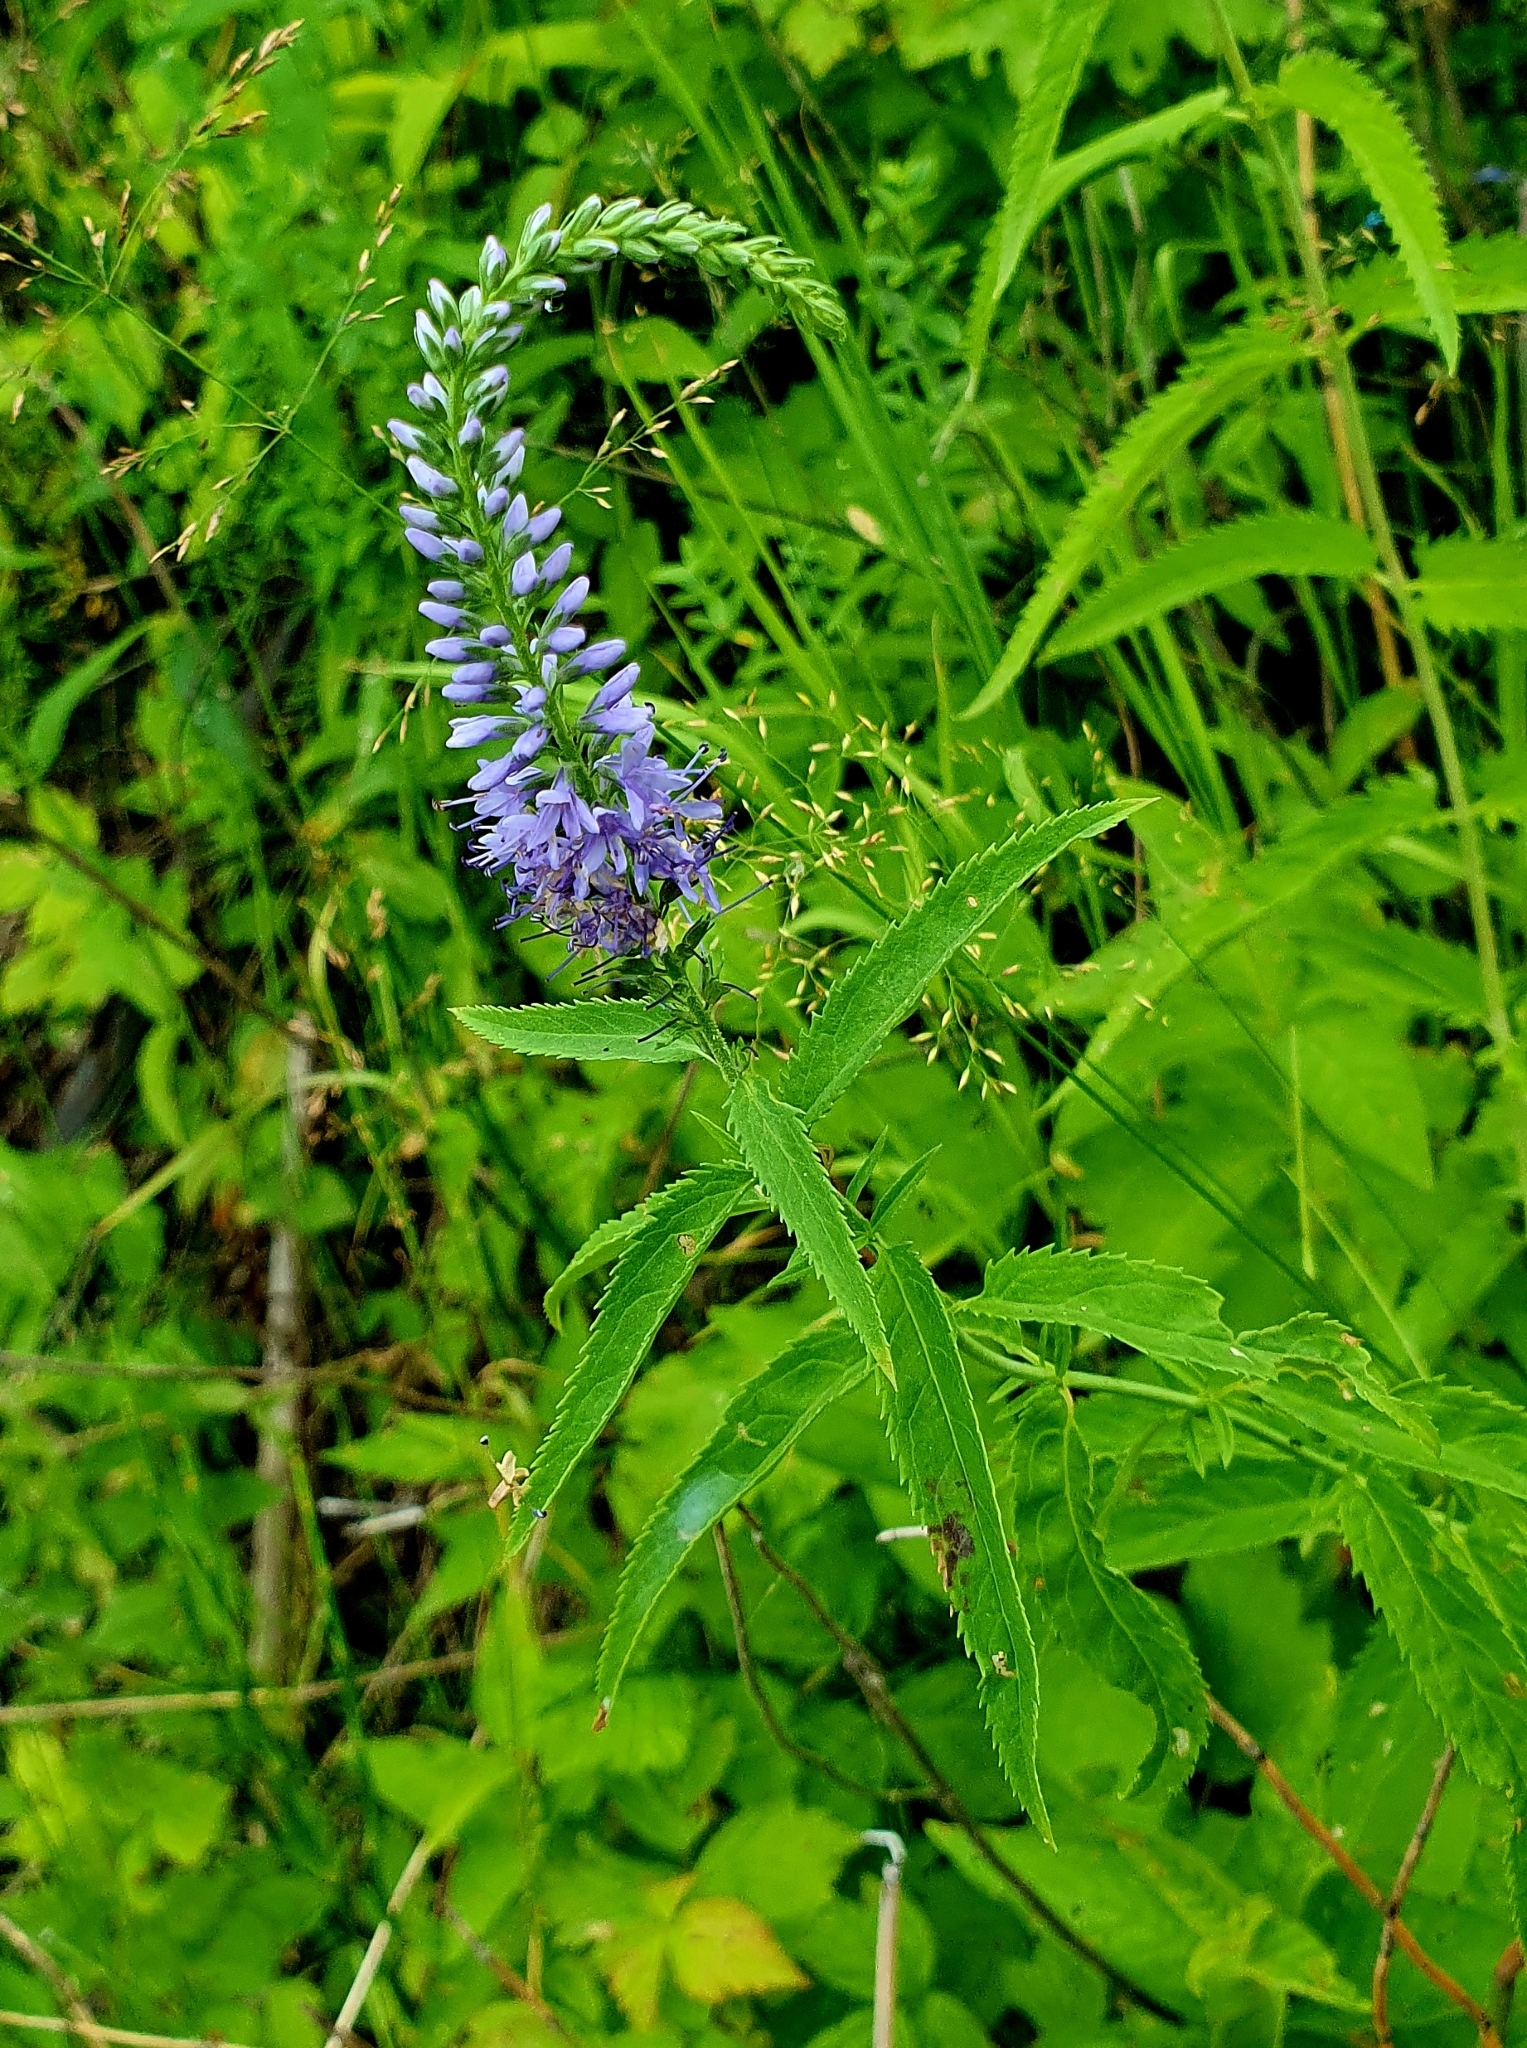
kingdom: Plantae
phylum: Tracheophyta
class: Magnoliopsida
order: Lamiales
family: Plantaginaceae
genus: Veronica
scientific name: Veronica longifolia
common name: Garden speedwell
